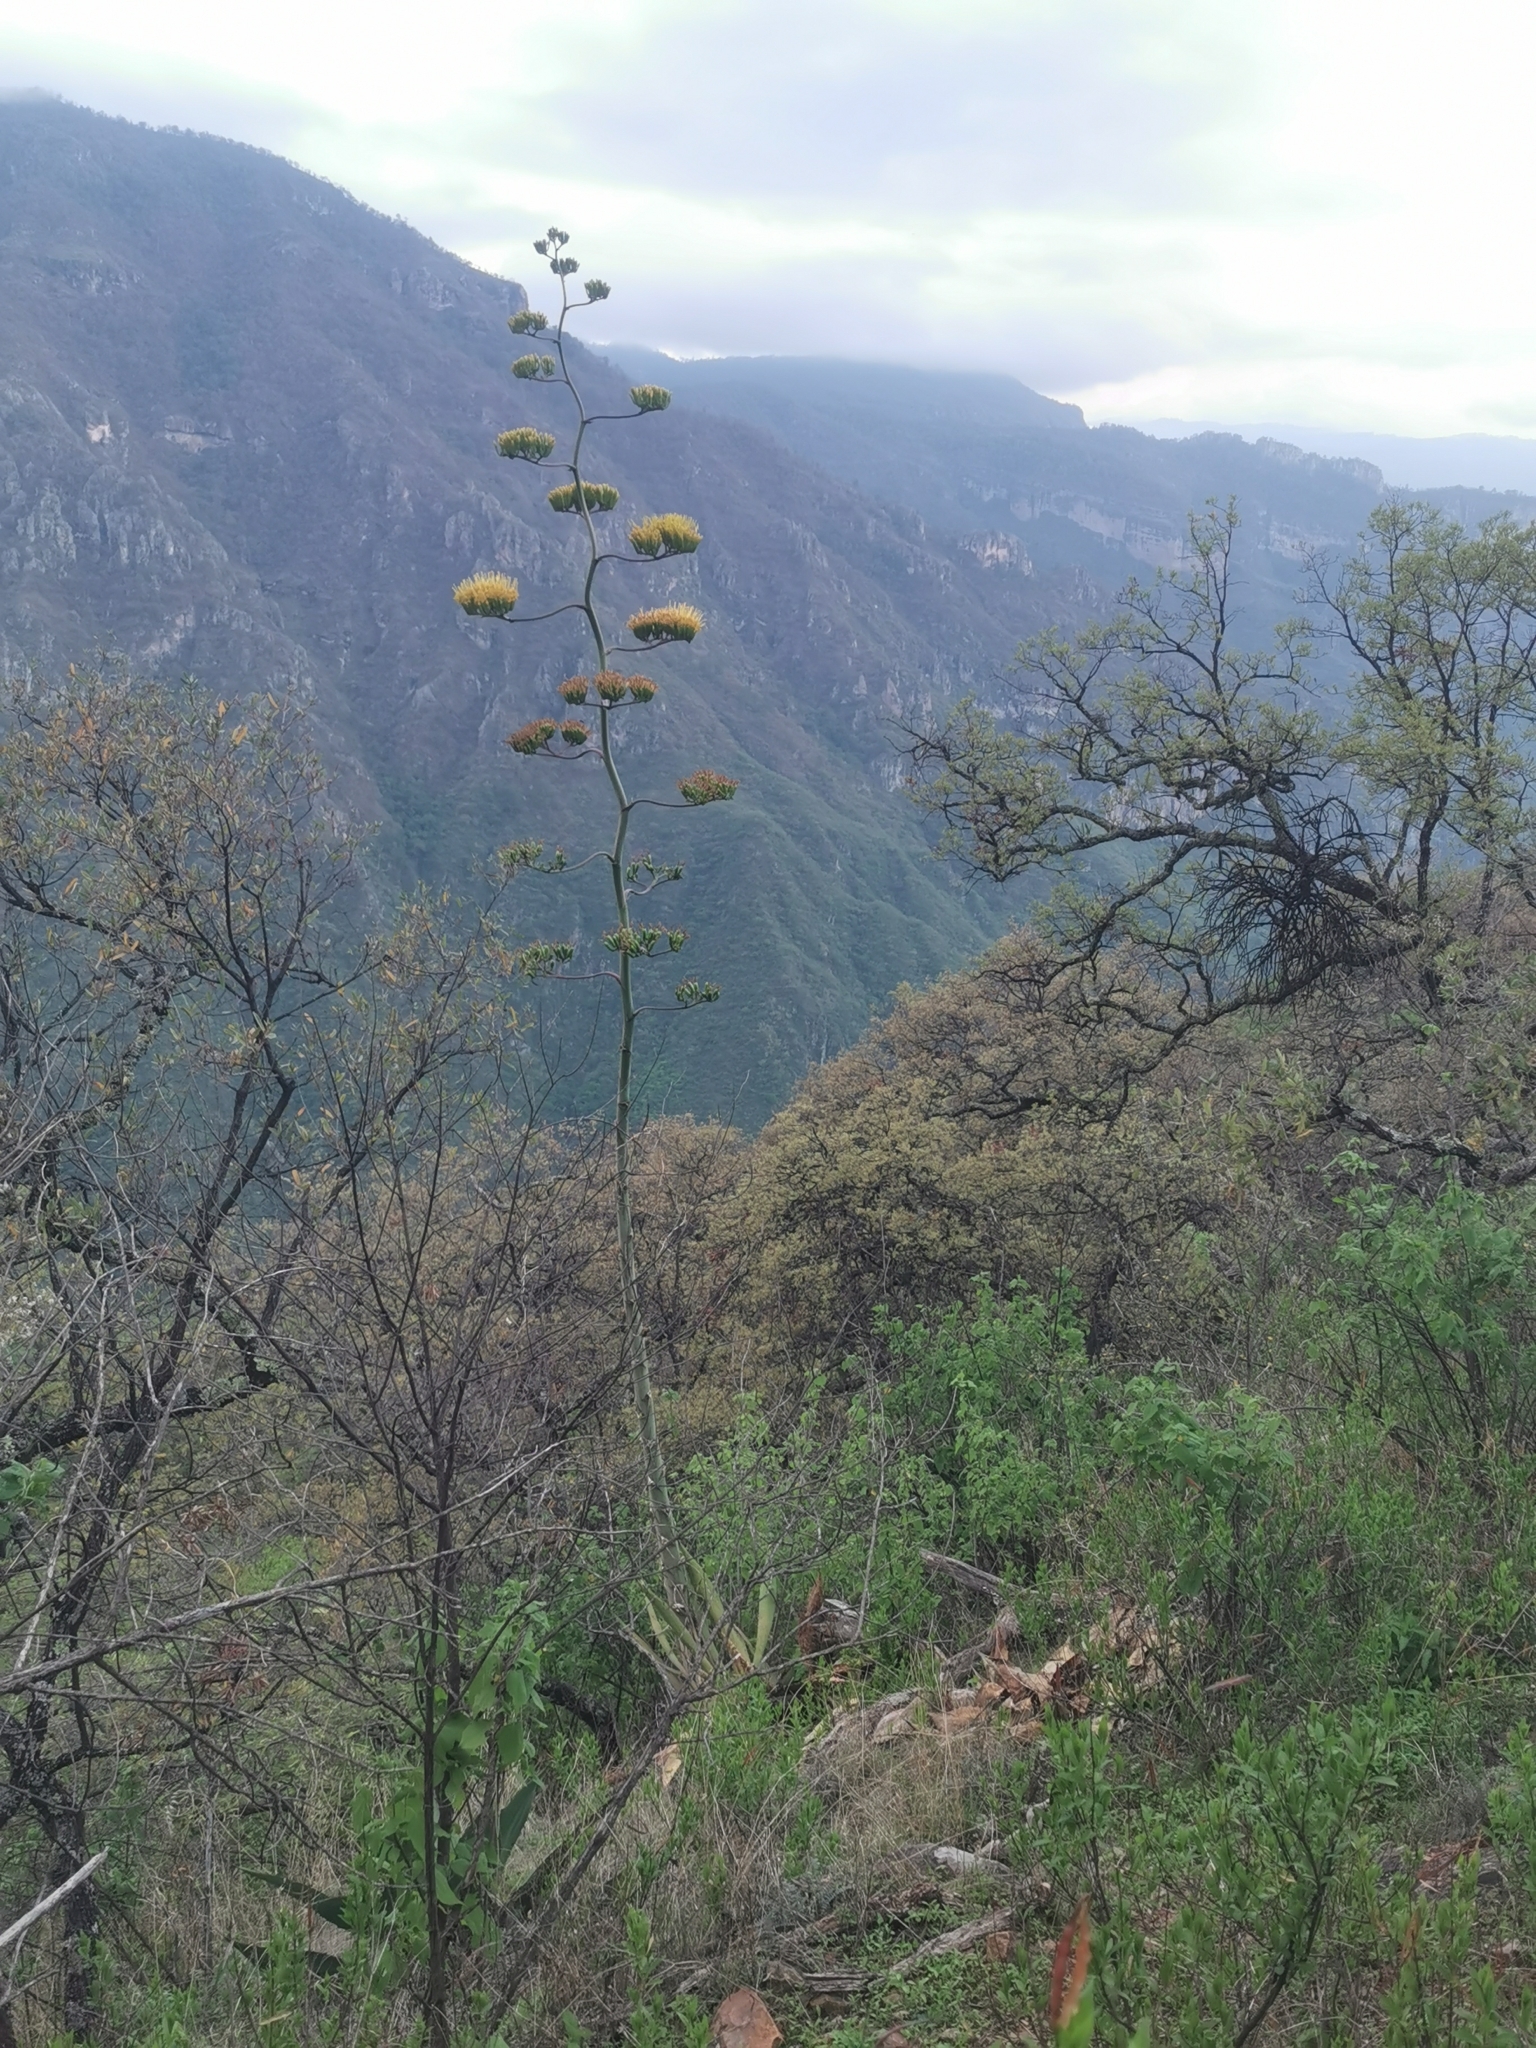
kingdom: Plantae
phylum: Tracheophyta
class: Liliopsida
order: Asparagales
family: Asparagaceae
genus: Agave
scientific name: Agave wocomahi
